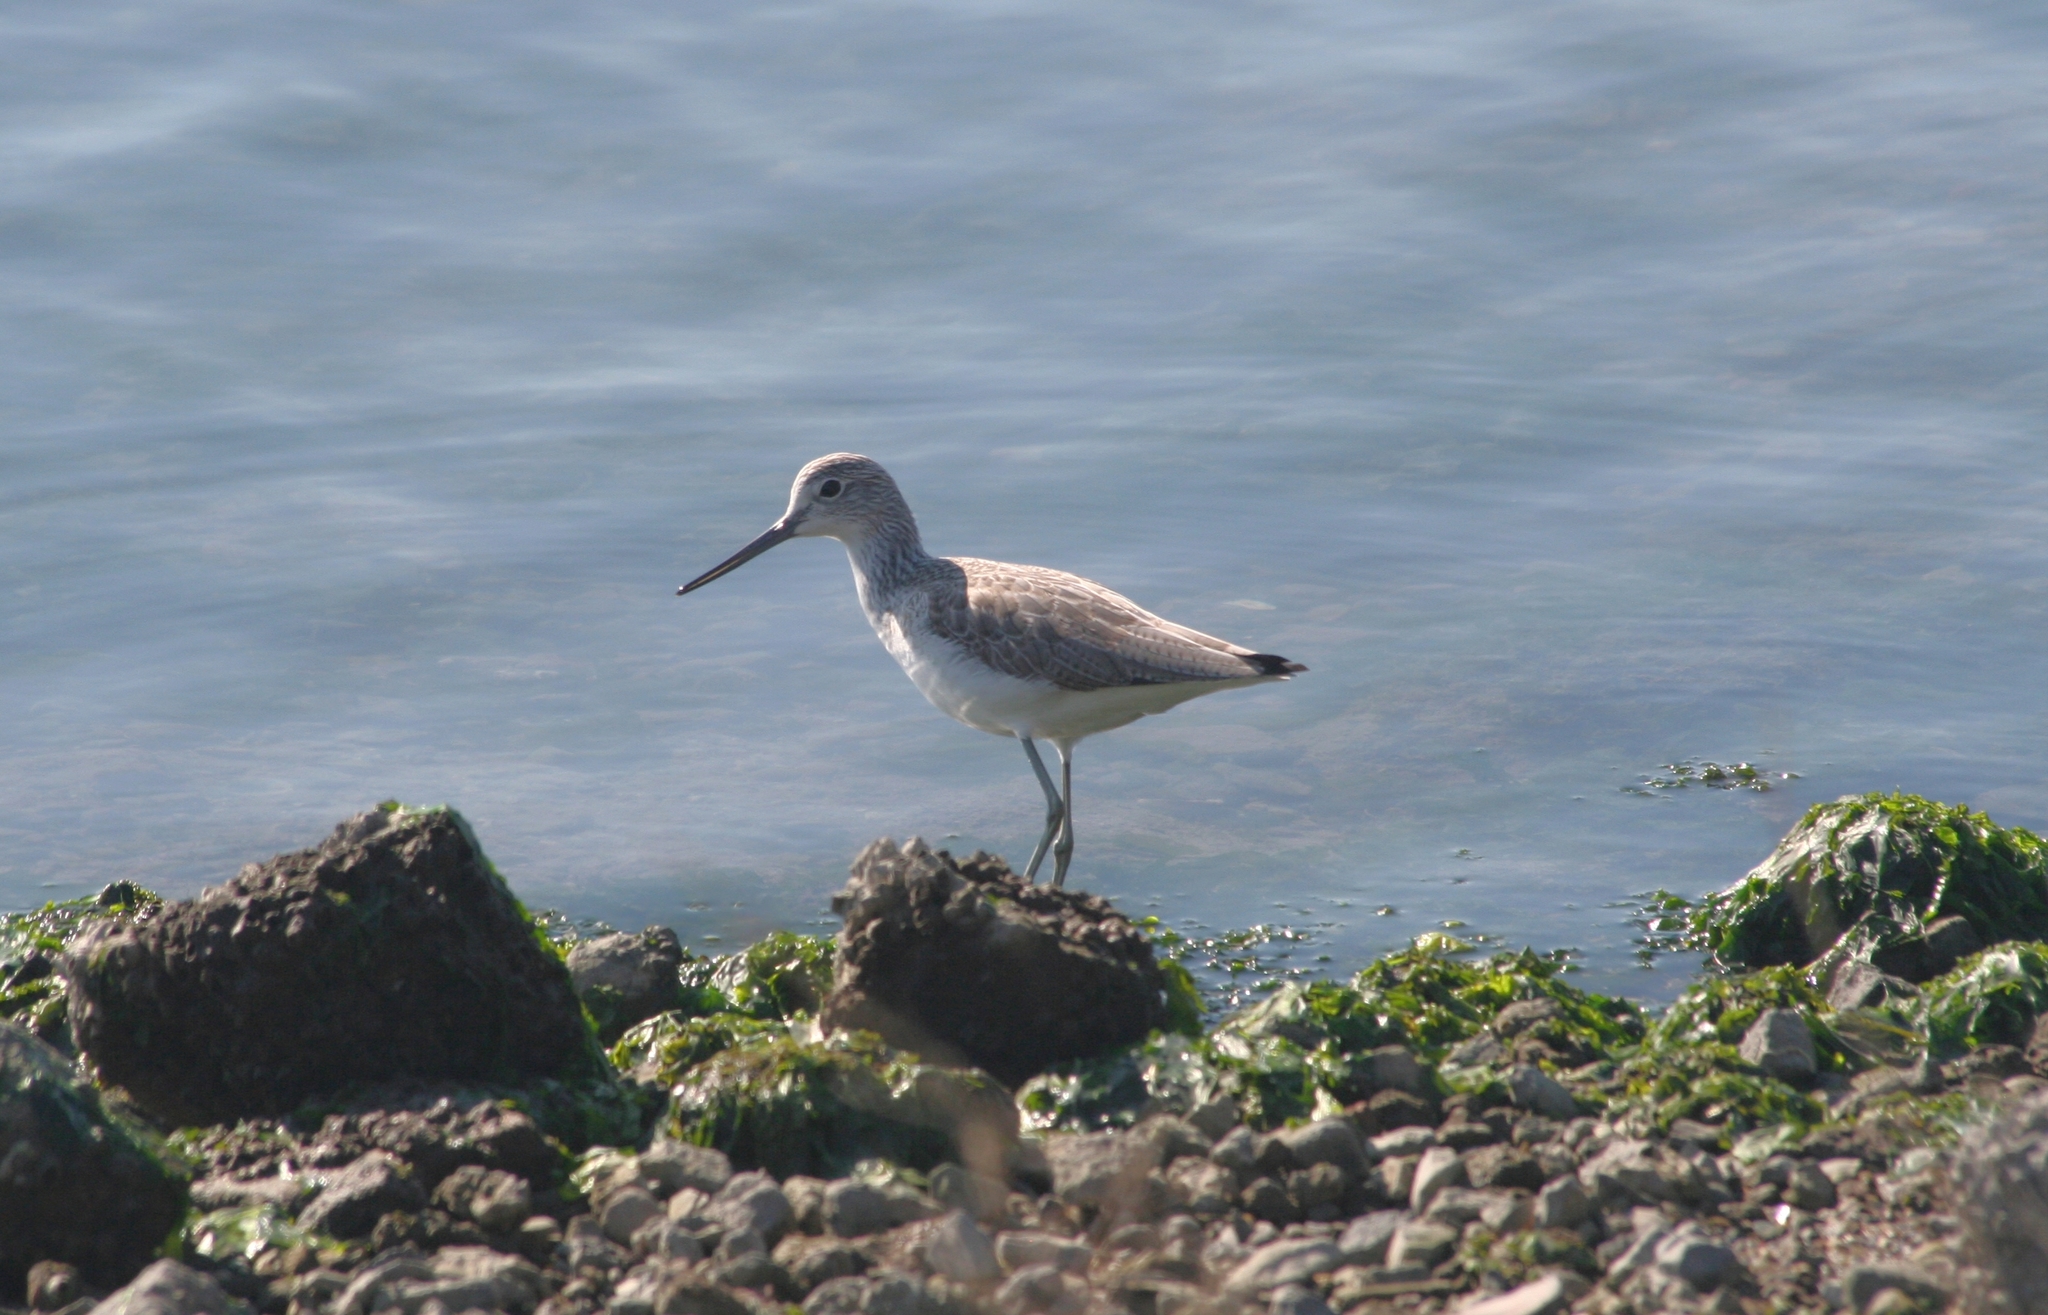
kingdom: Animalia
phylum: Chordata
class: Aves
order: Charadriiformes
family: Scolopacidae
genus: Tringa
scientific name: Tringa nebularia
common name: Common greenshank
